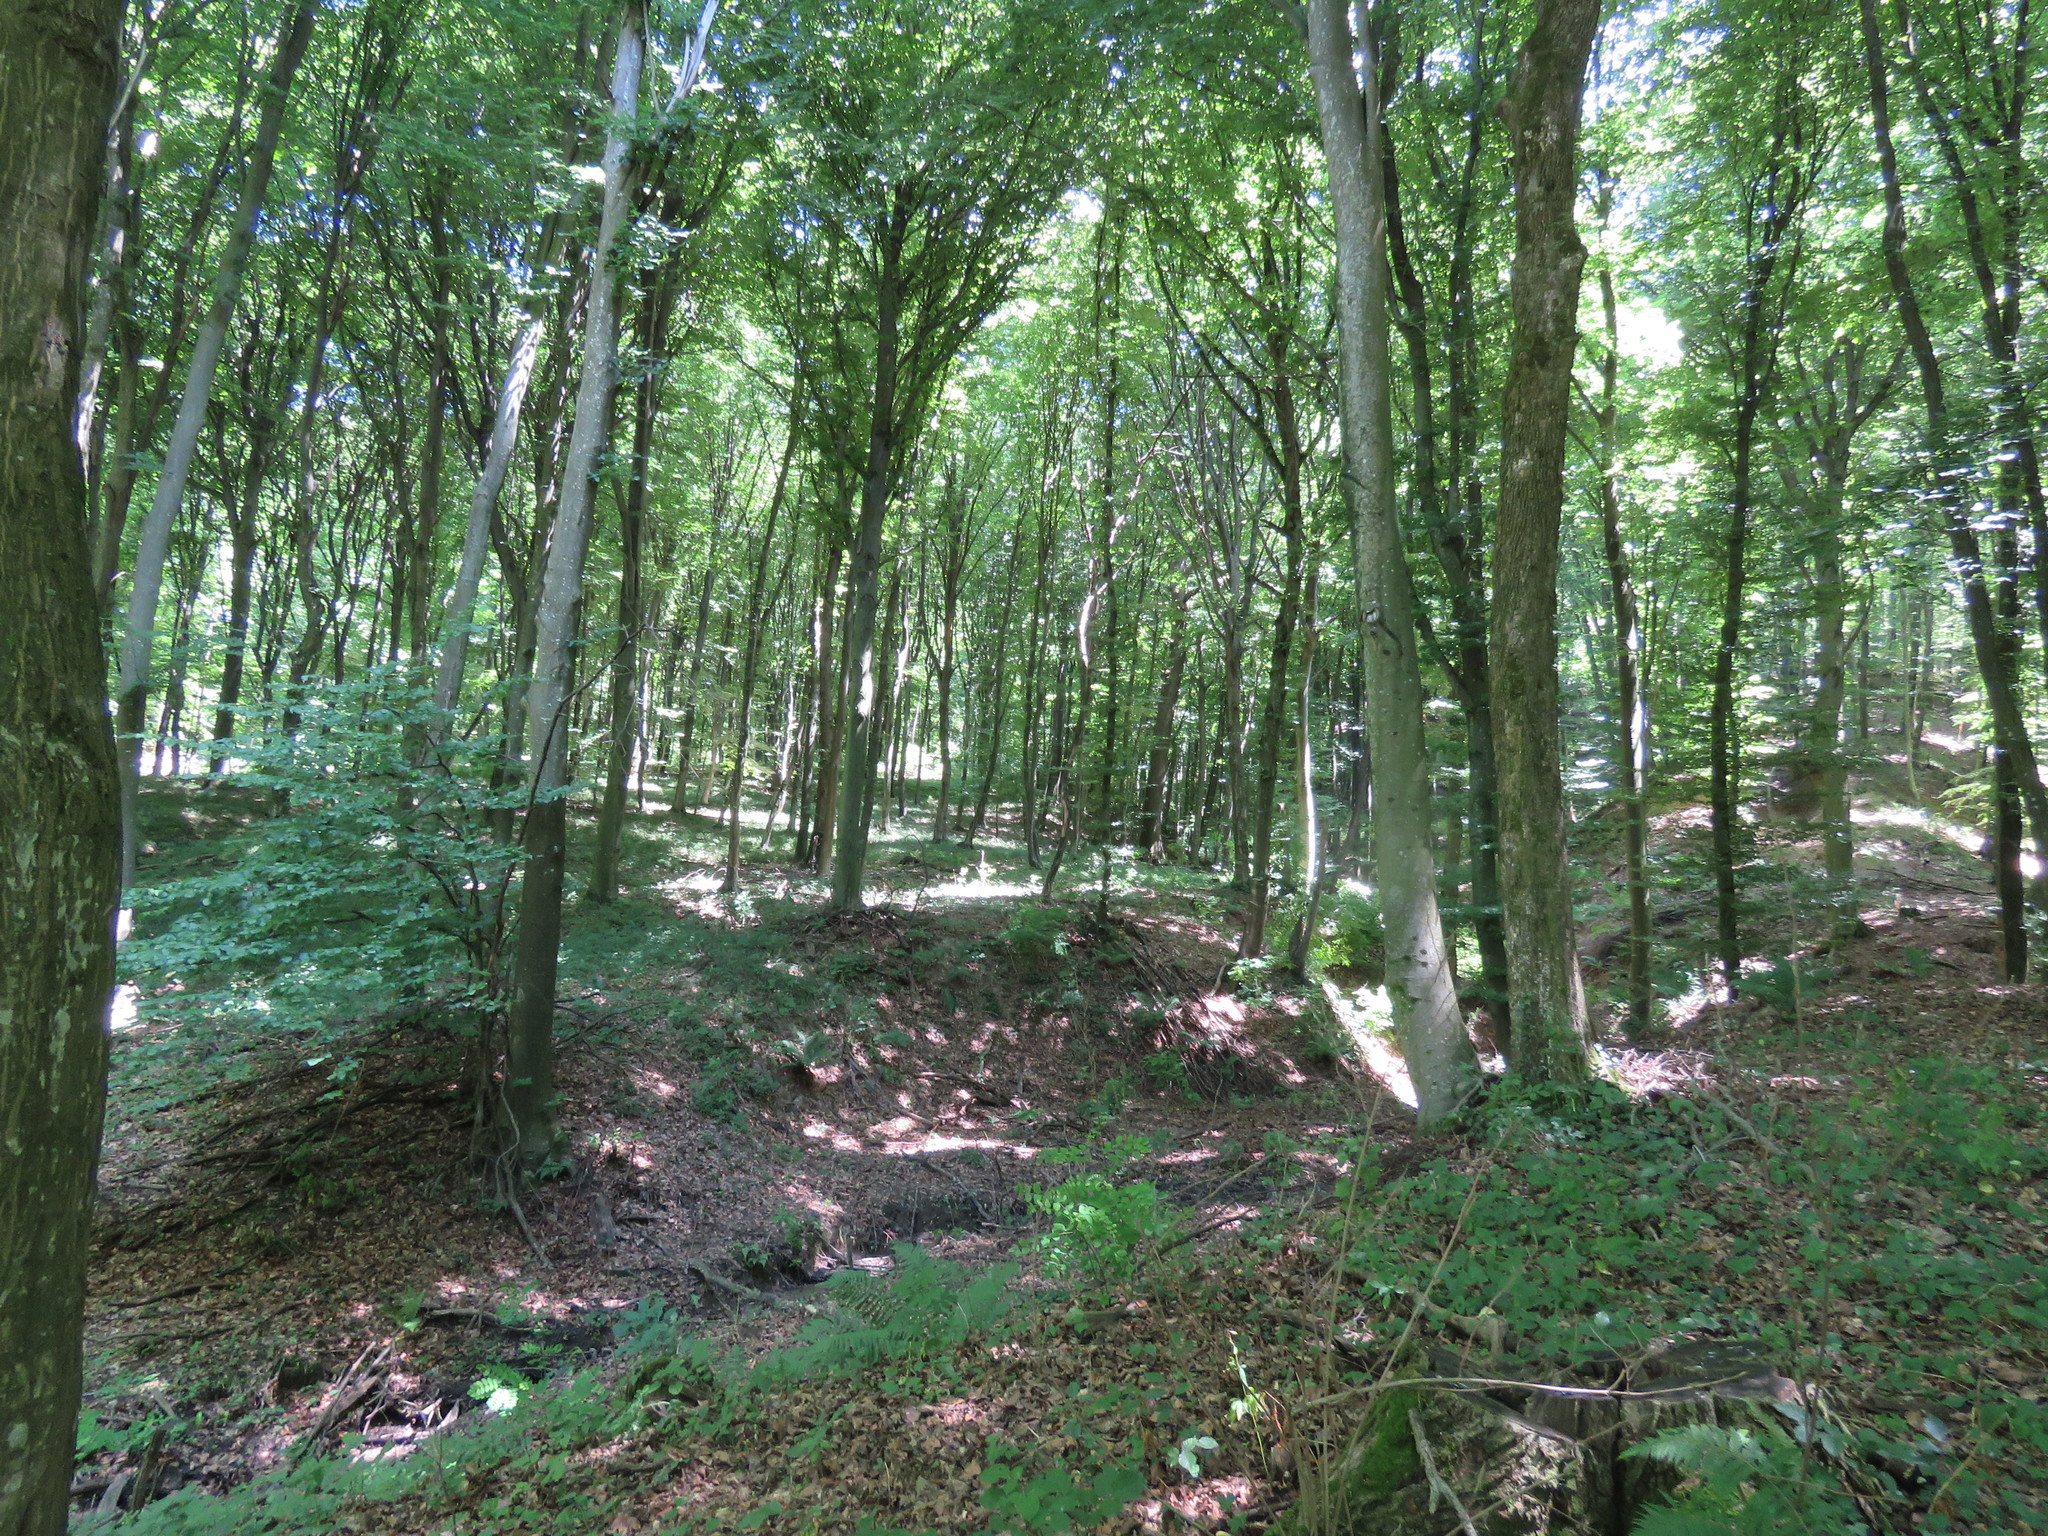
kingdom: Plantae
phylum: Tracheophyta
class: Magnoliopsida
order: Fagales
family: Fagaceae
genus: Fagus
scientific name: Fagus sylvatica
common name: Beech
